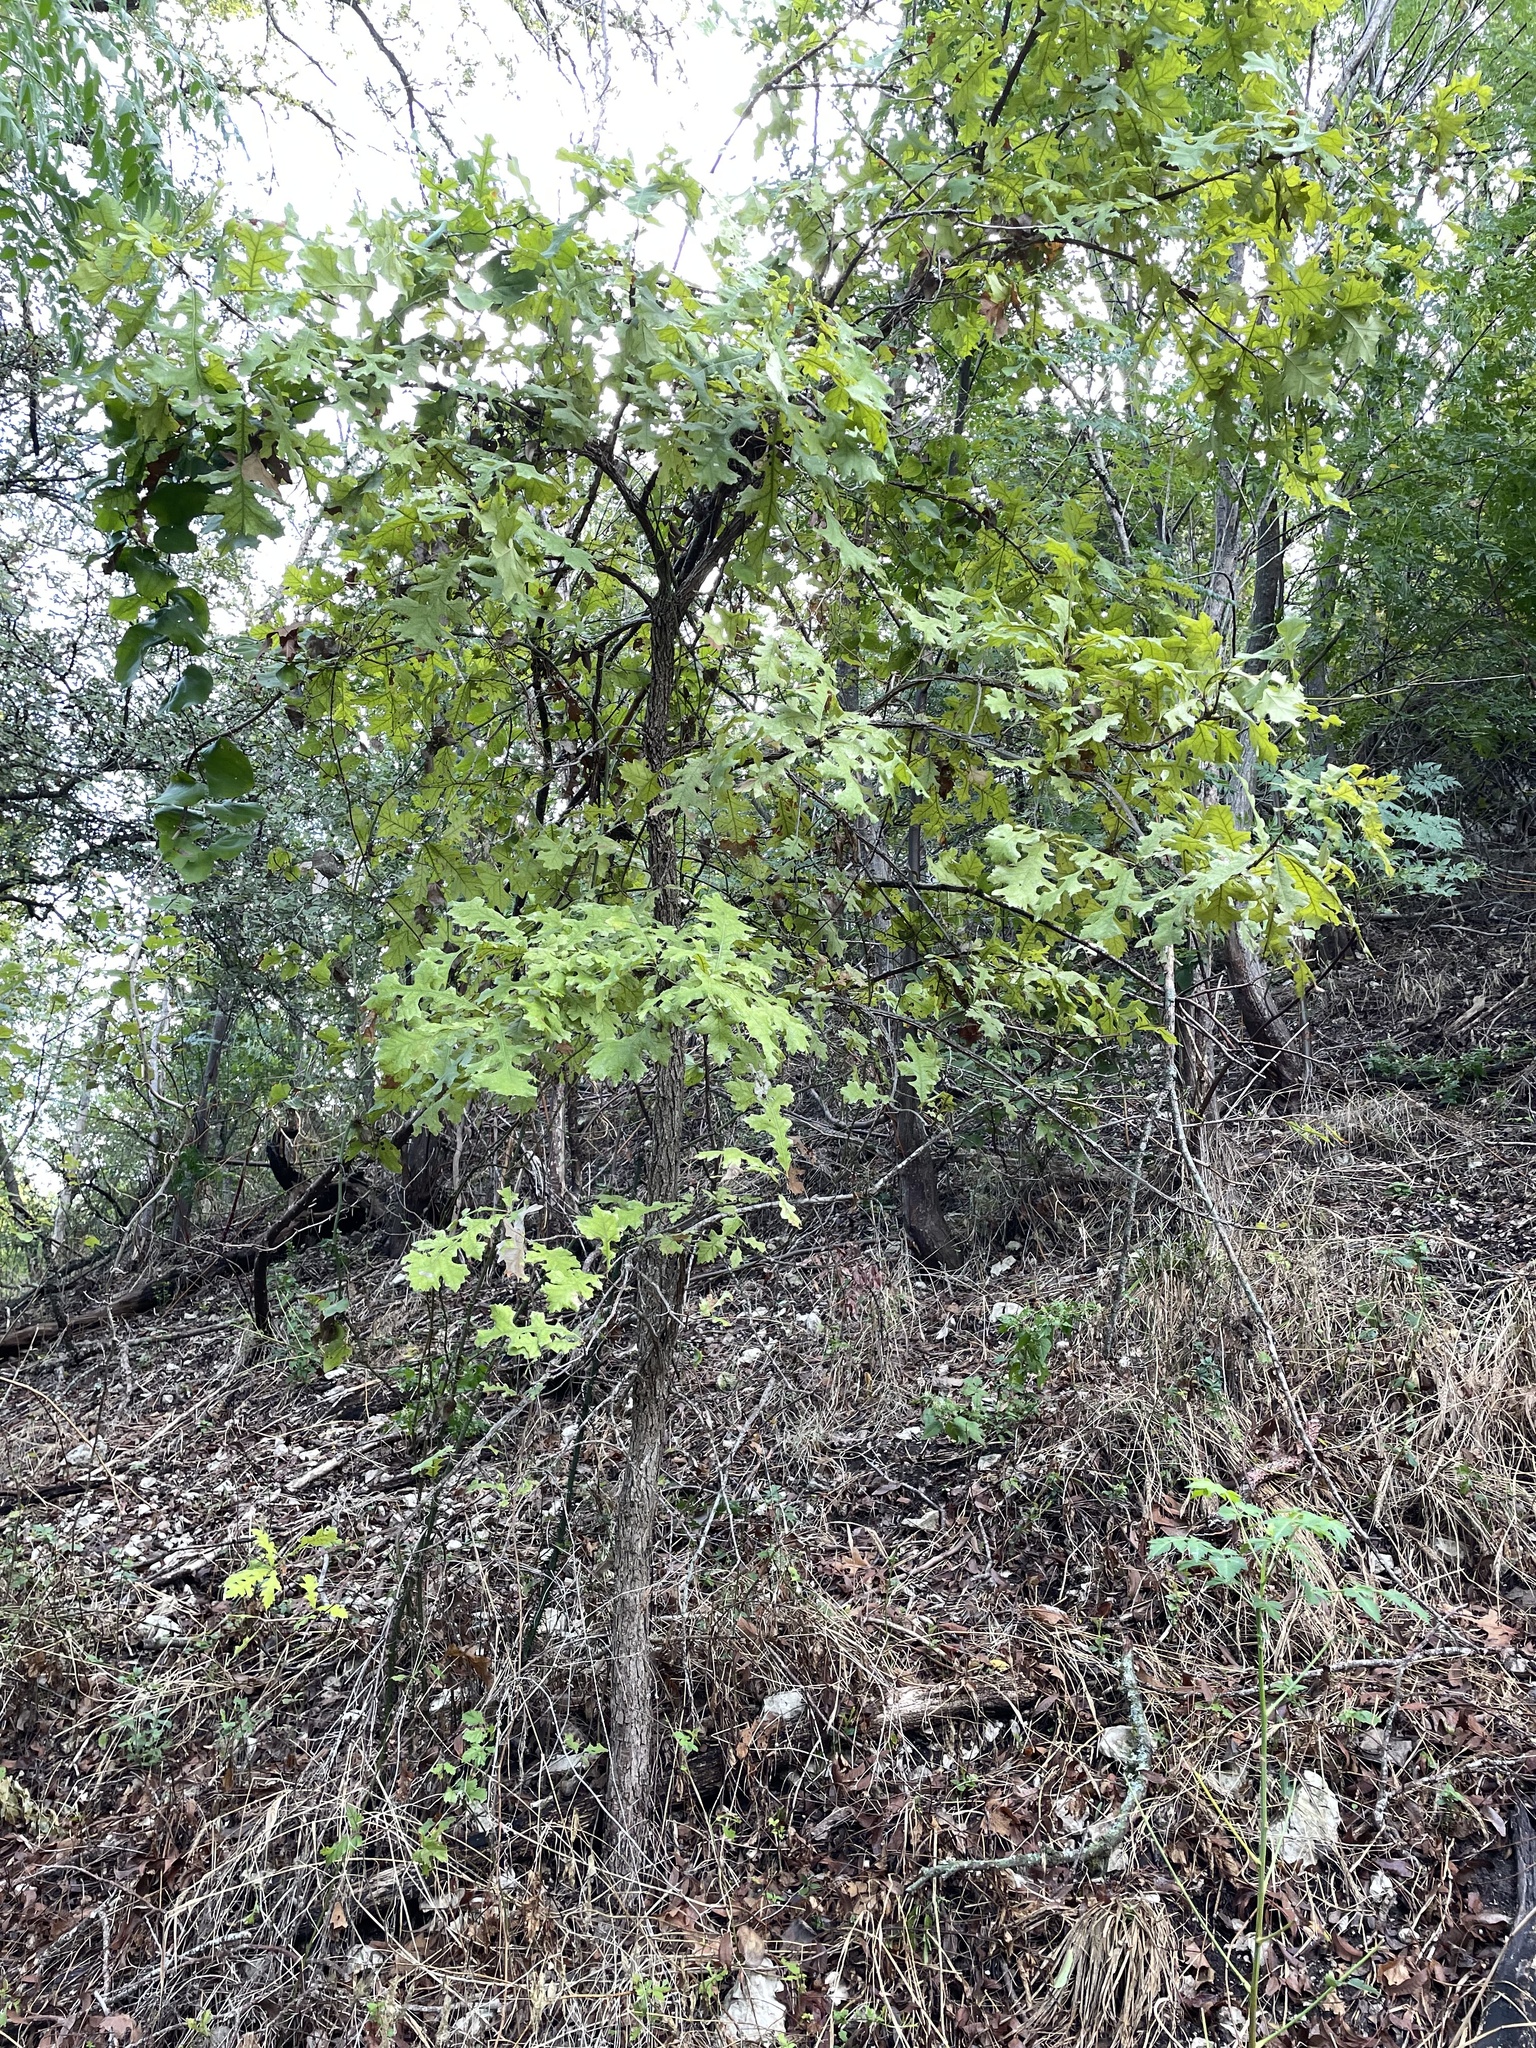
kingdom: Plantae
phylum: Tracheophyta
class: Magnoliopsida
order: Fagales
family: Fagaceae
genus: Quercus
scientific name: Quercus macrocarpa
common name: Bur oak
